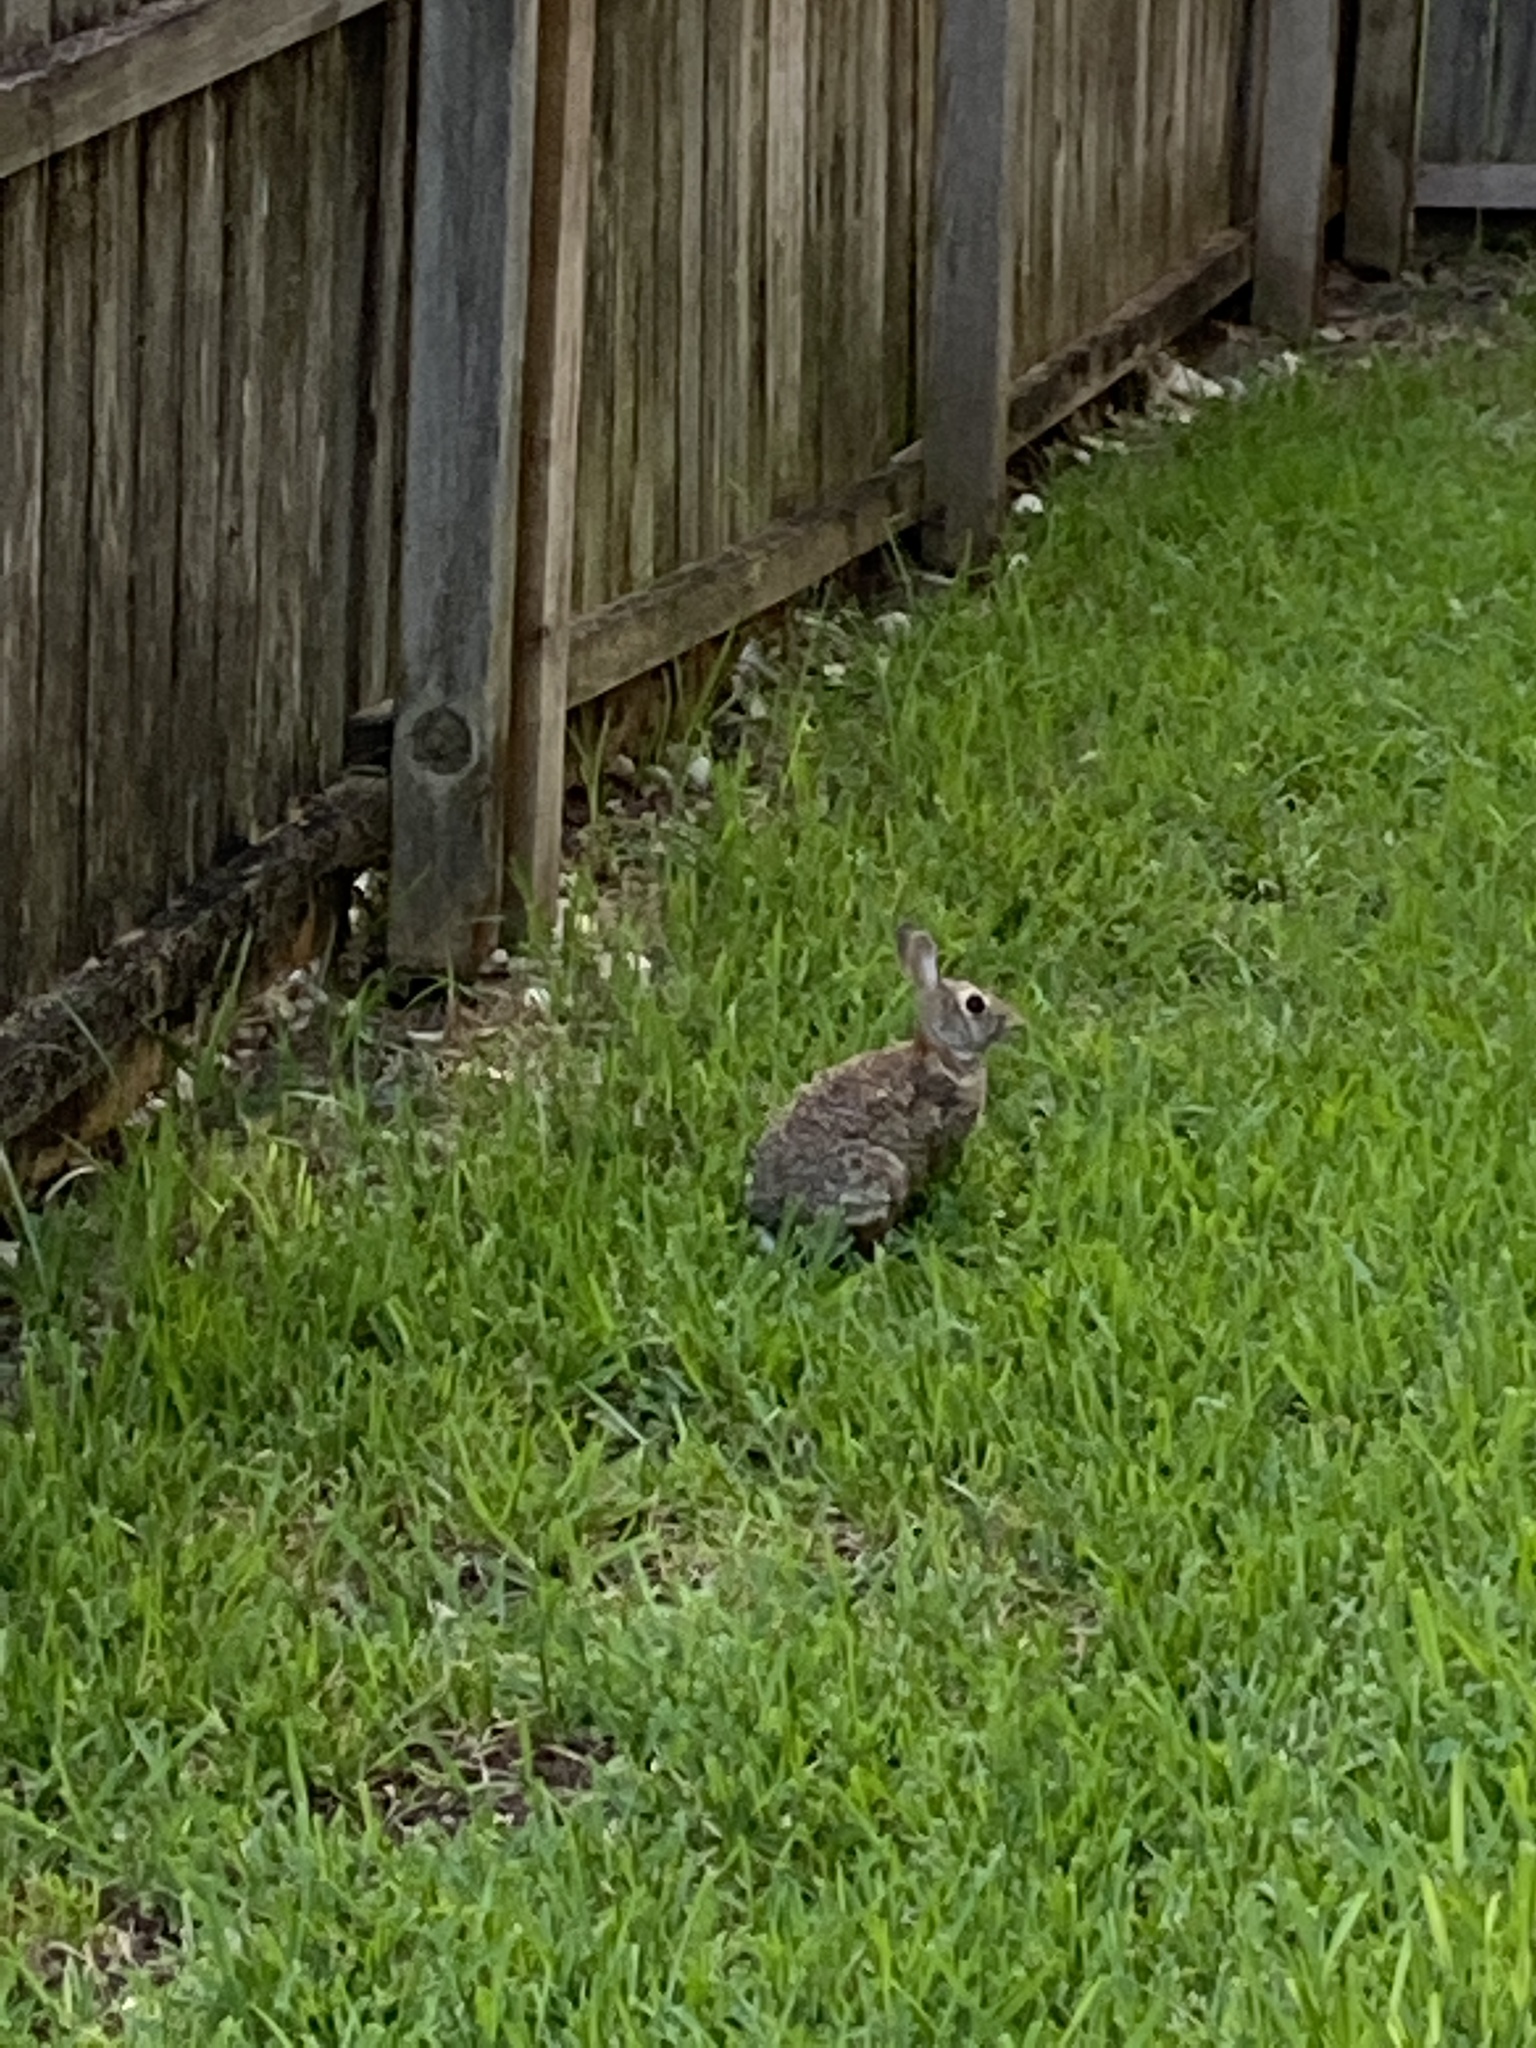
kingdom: Animalia
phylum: Chordata
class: Mammalia
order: Lagomorpha
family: Leporidae
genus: Sylvilagus
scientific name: Sylvilagus floridanus
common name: Eastern cottontail
